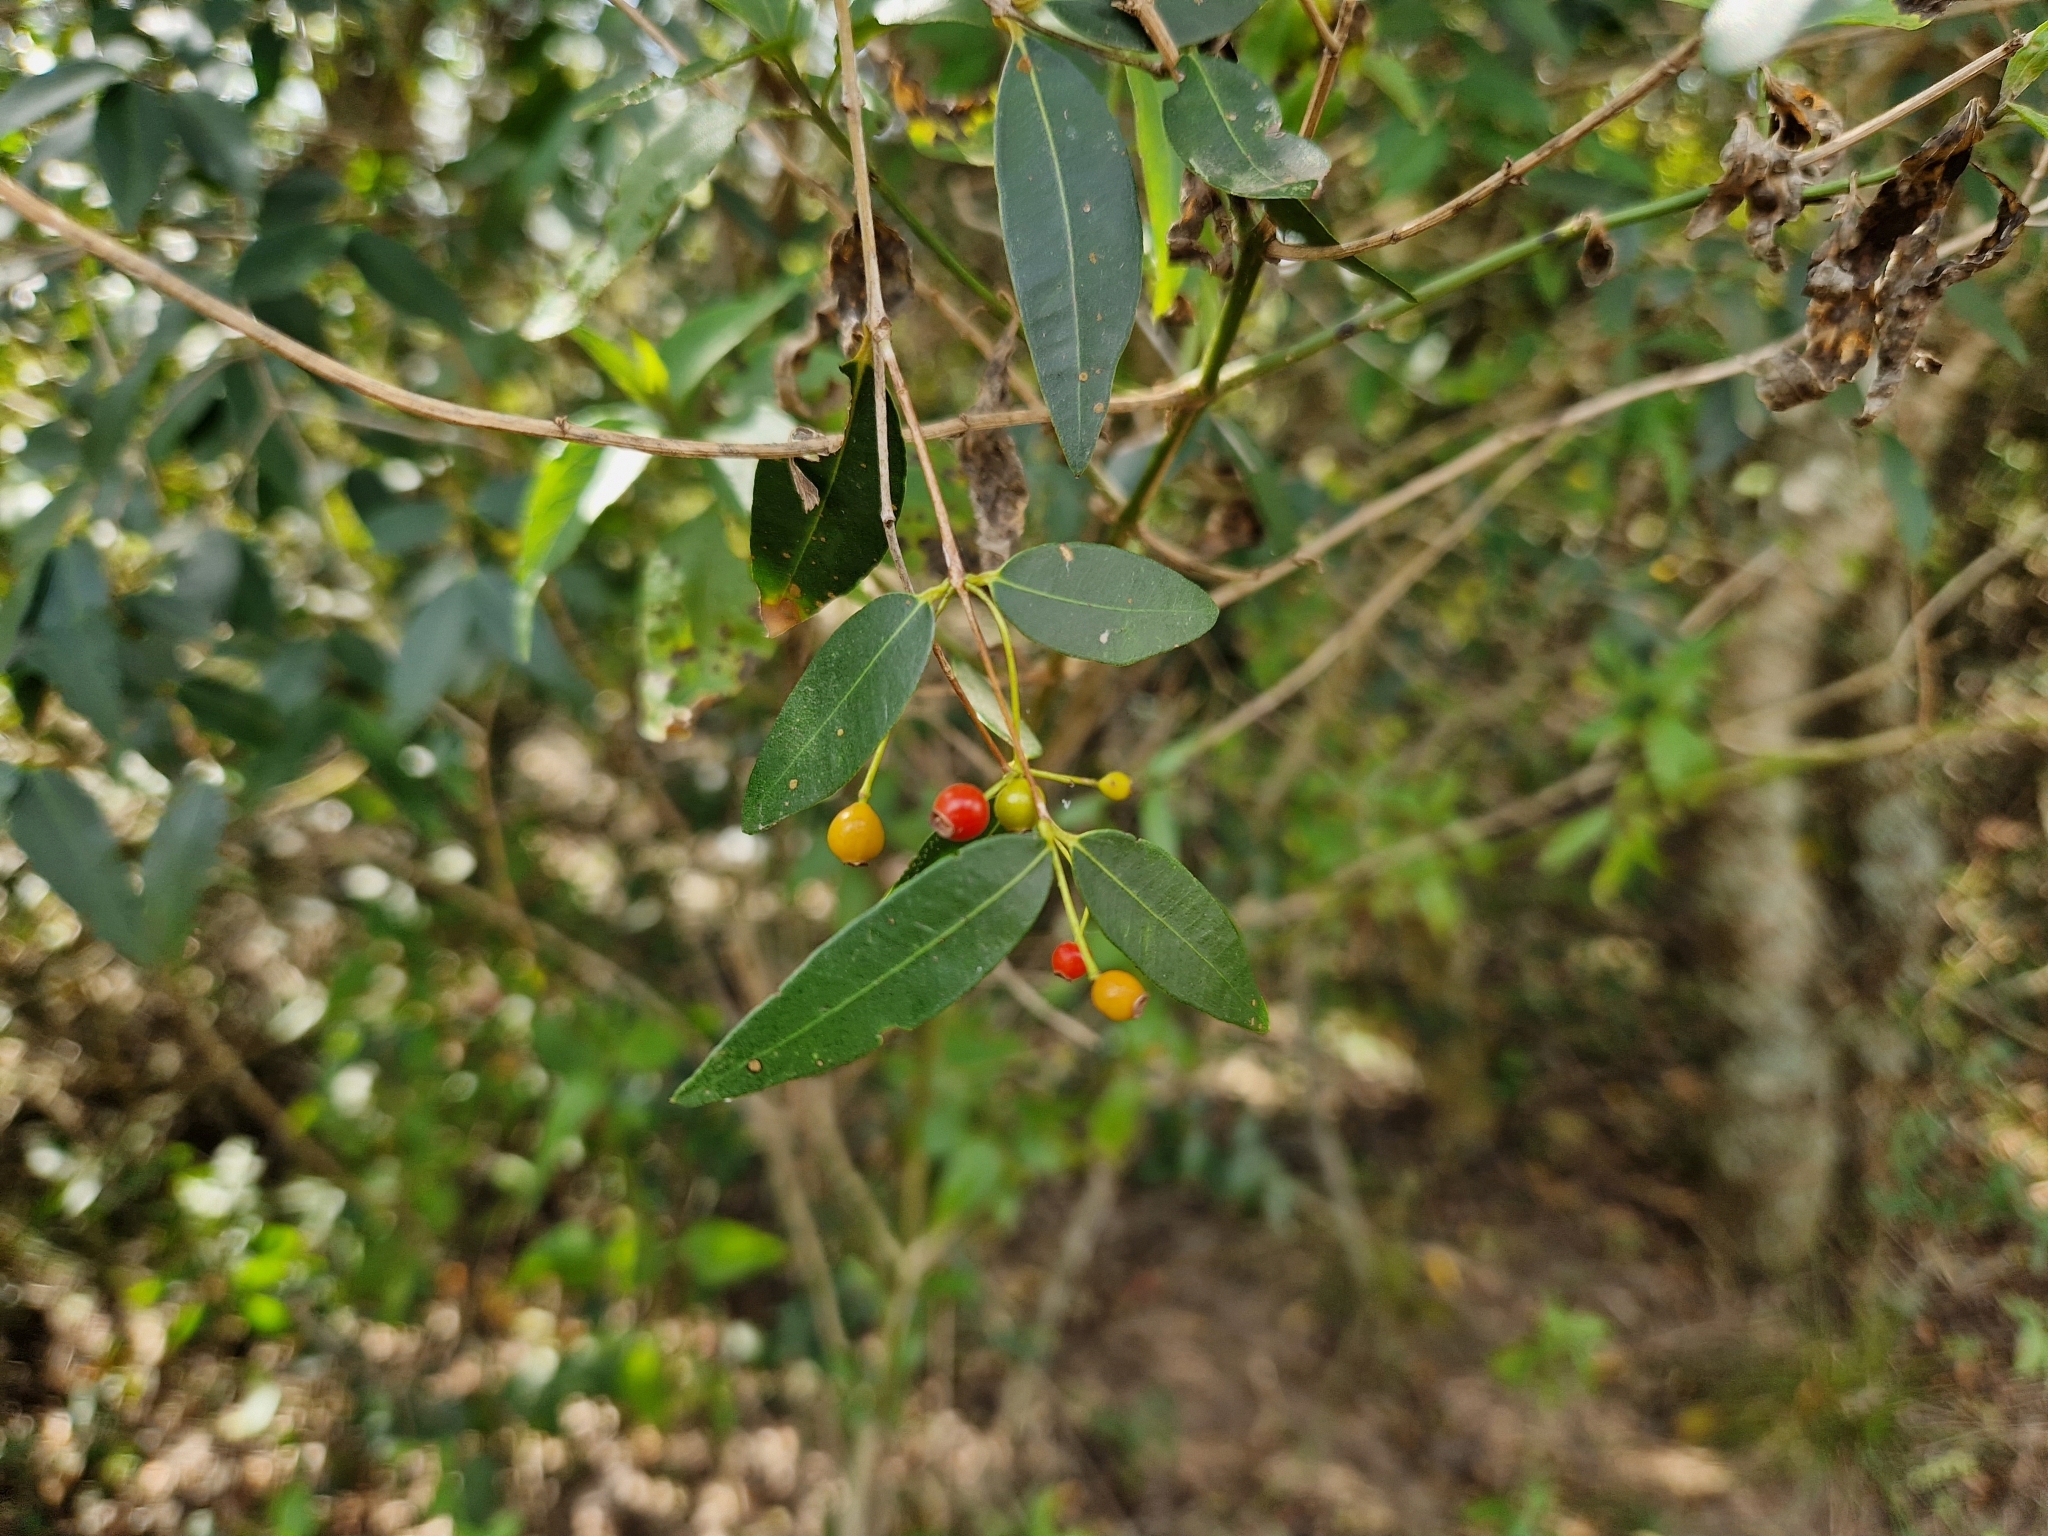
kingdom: Plantae
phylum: Tracheophyta
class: Magnoliopsida
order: Myrtales
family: Myrtaceae
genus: Blepharocalyx
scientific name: Blepharocalyx salicifolius
